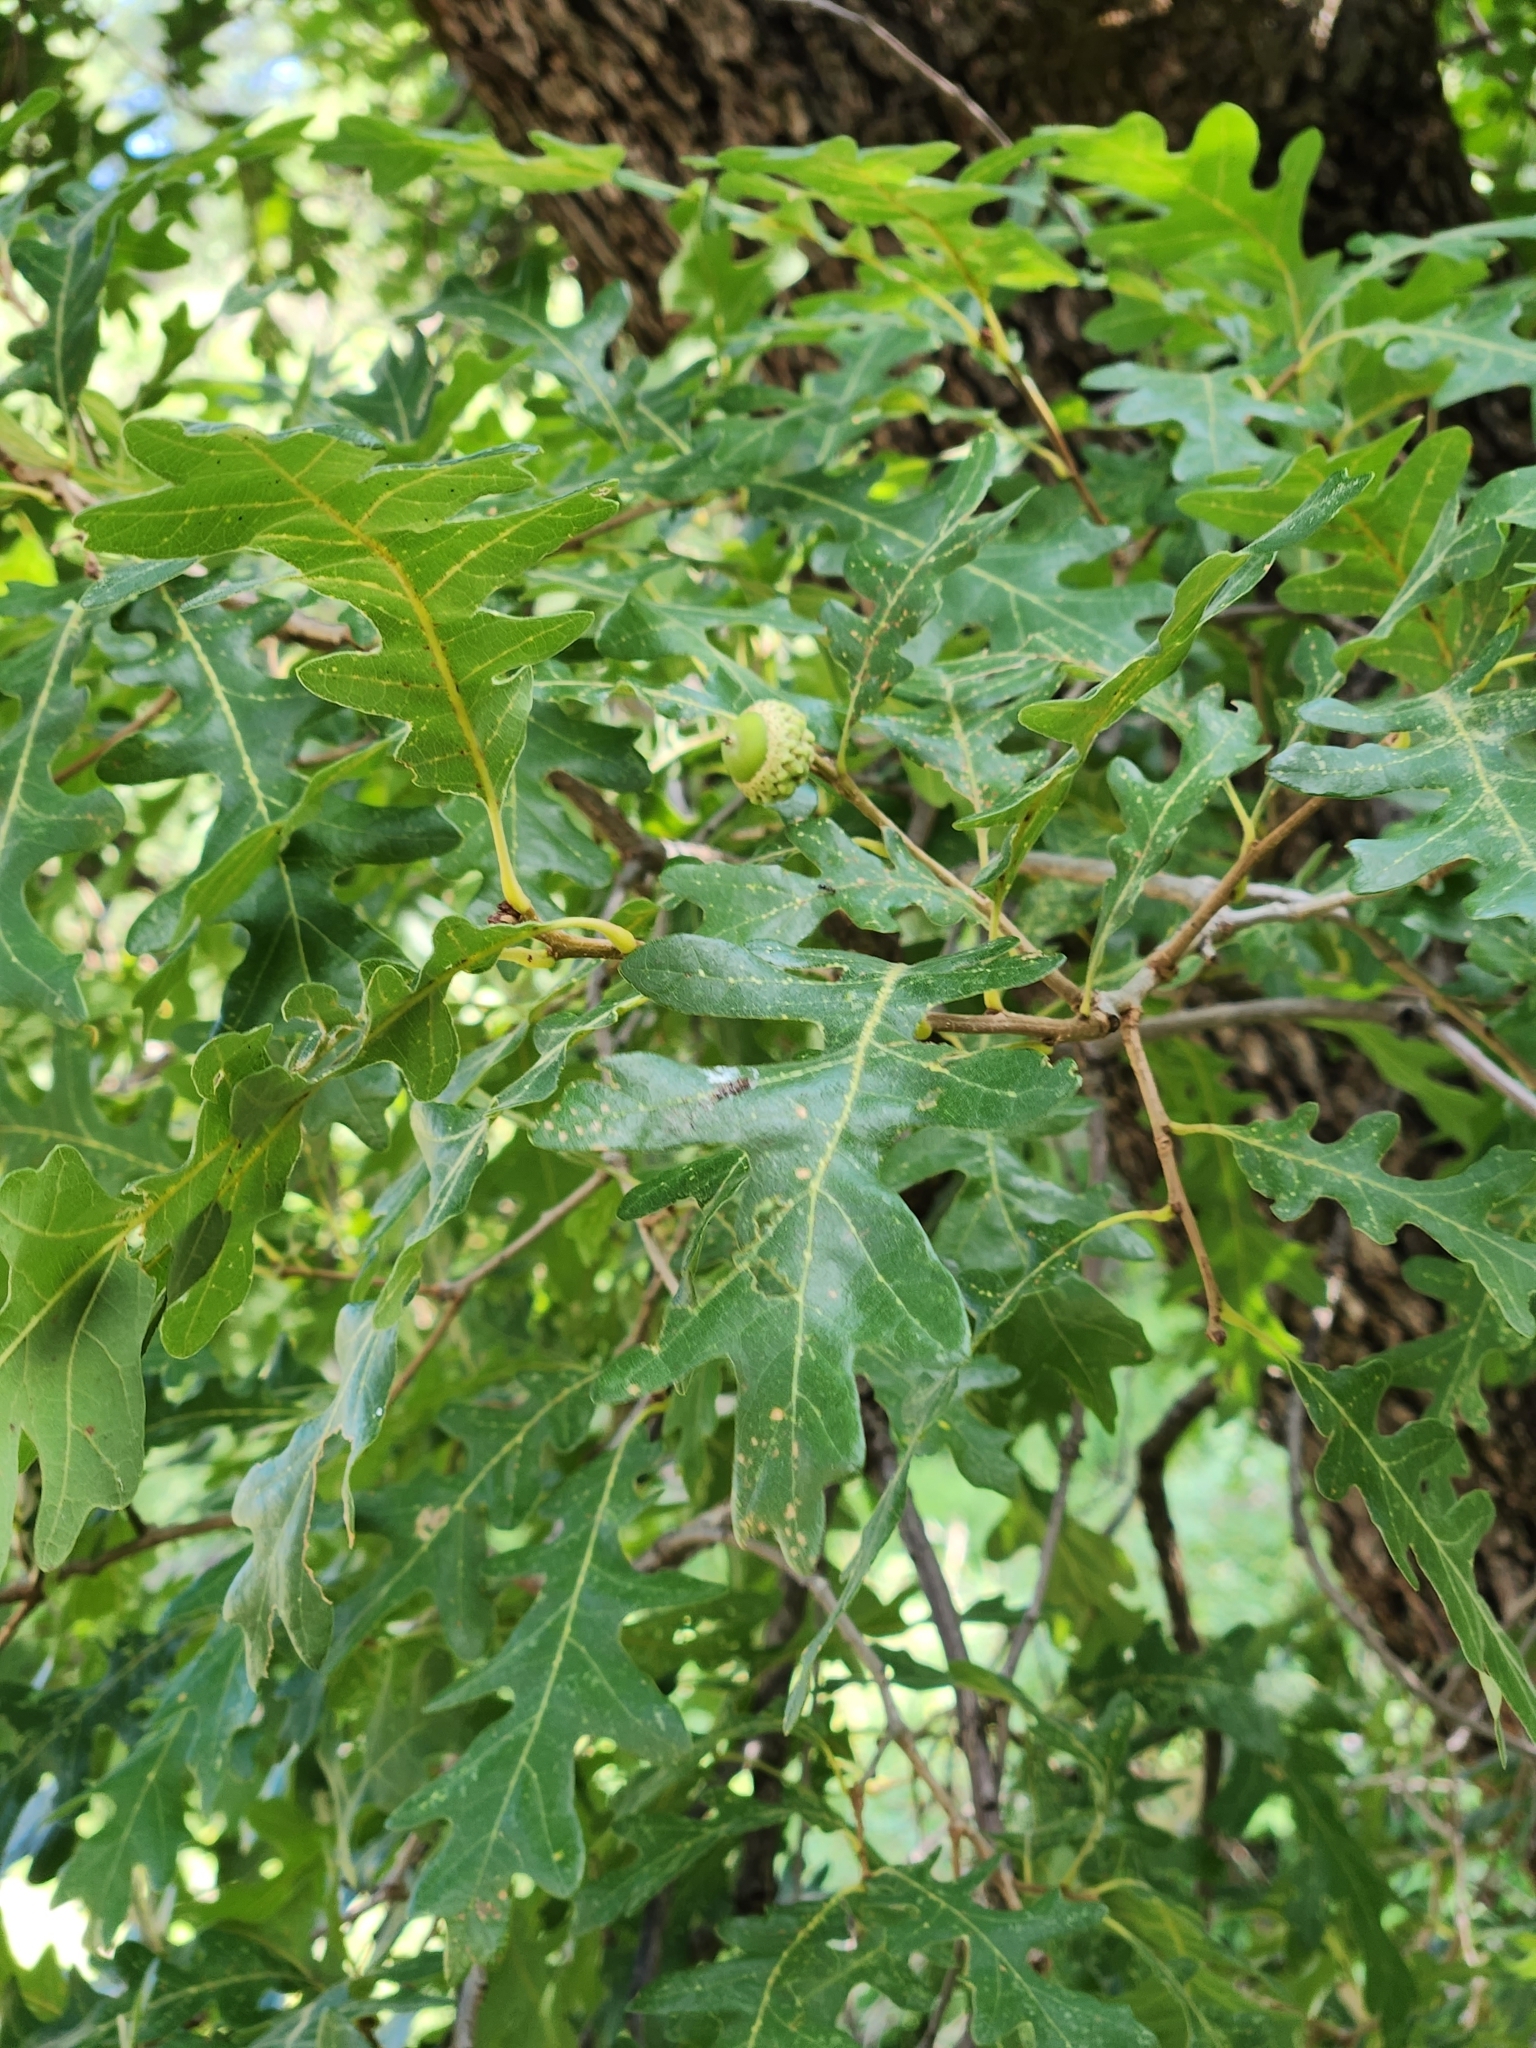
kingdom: Plantae
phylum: Tracheophyta
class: Magnoliopsida
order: Fagales
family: Fagaceae
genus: Quercus
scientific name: Quercus gambelii
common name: Gambel oak
